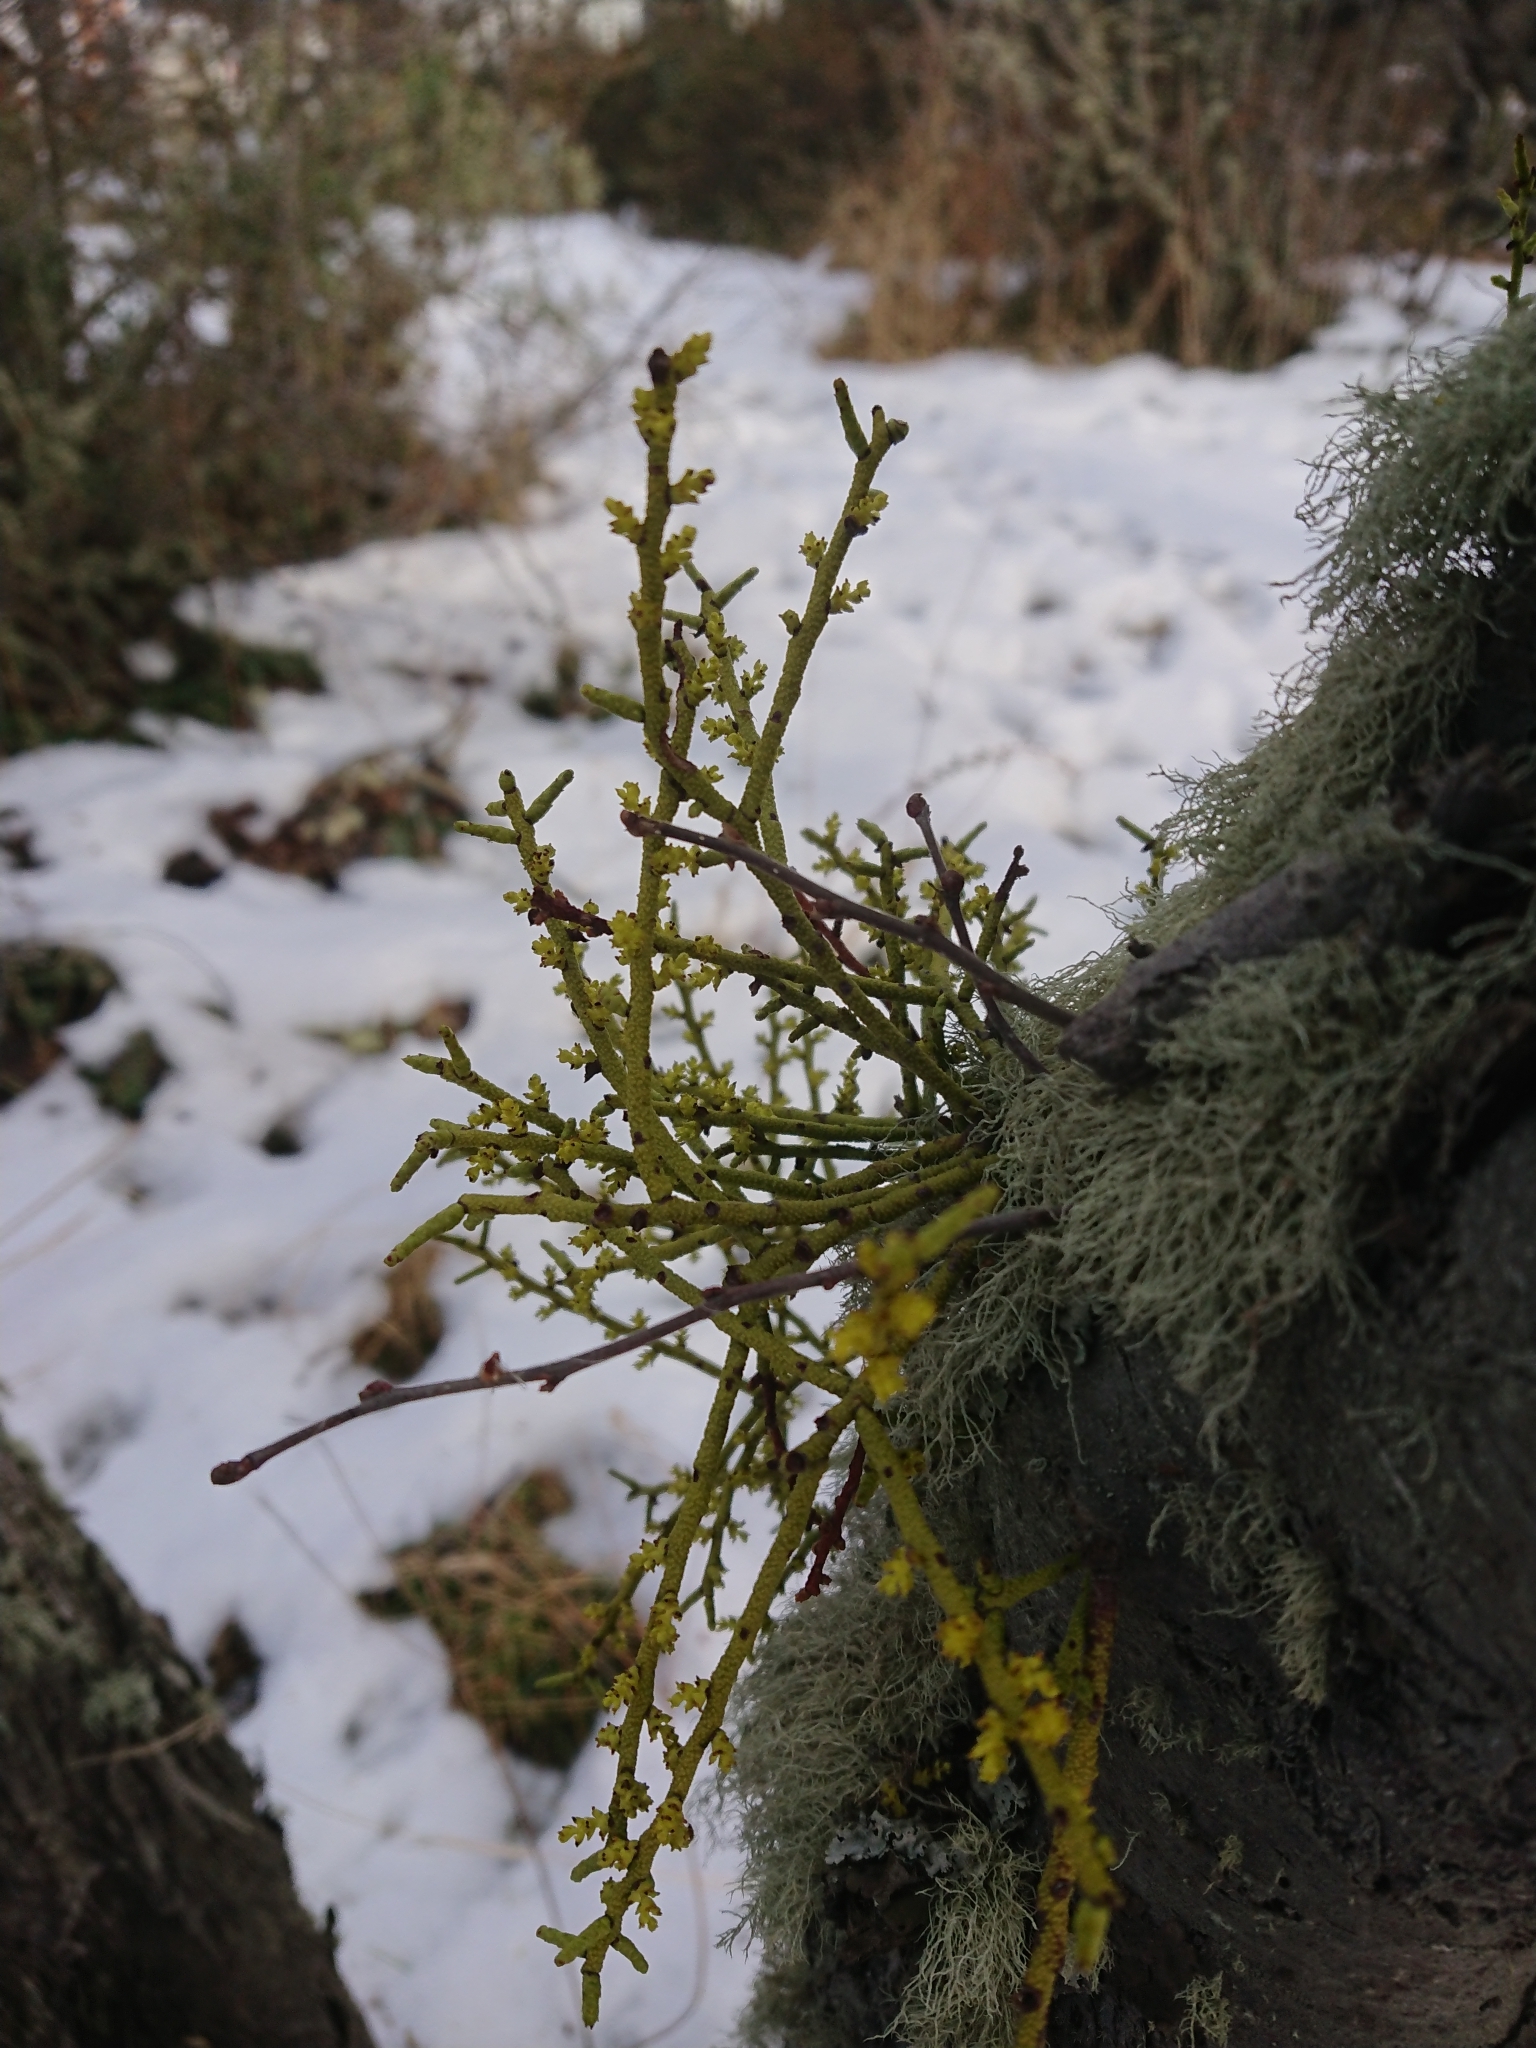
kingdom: Plantae
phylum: Tracheophyta
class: Magnoliopsida
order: Santalales
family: Misodendraceae
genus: Misodendrum
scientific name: Misodendrum punctulatum
